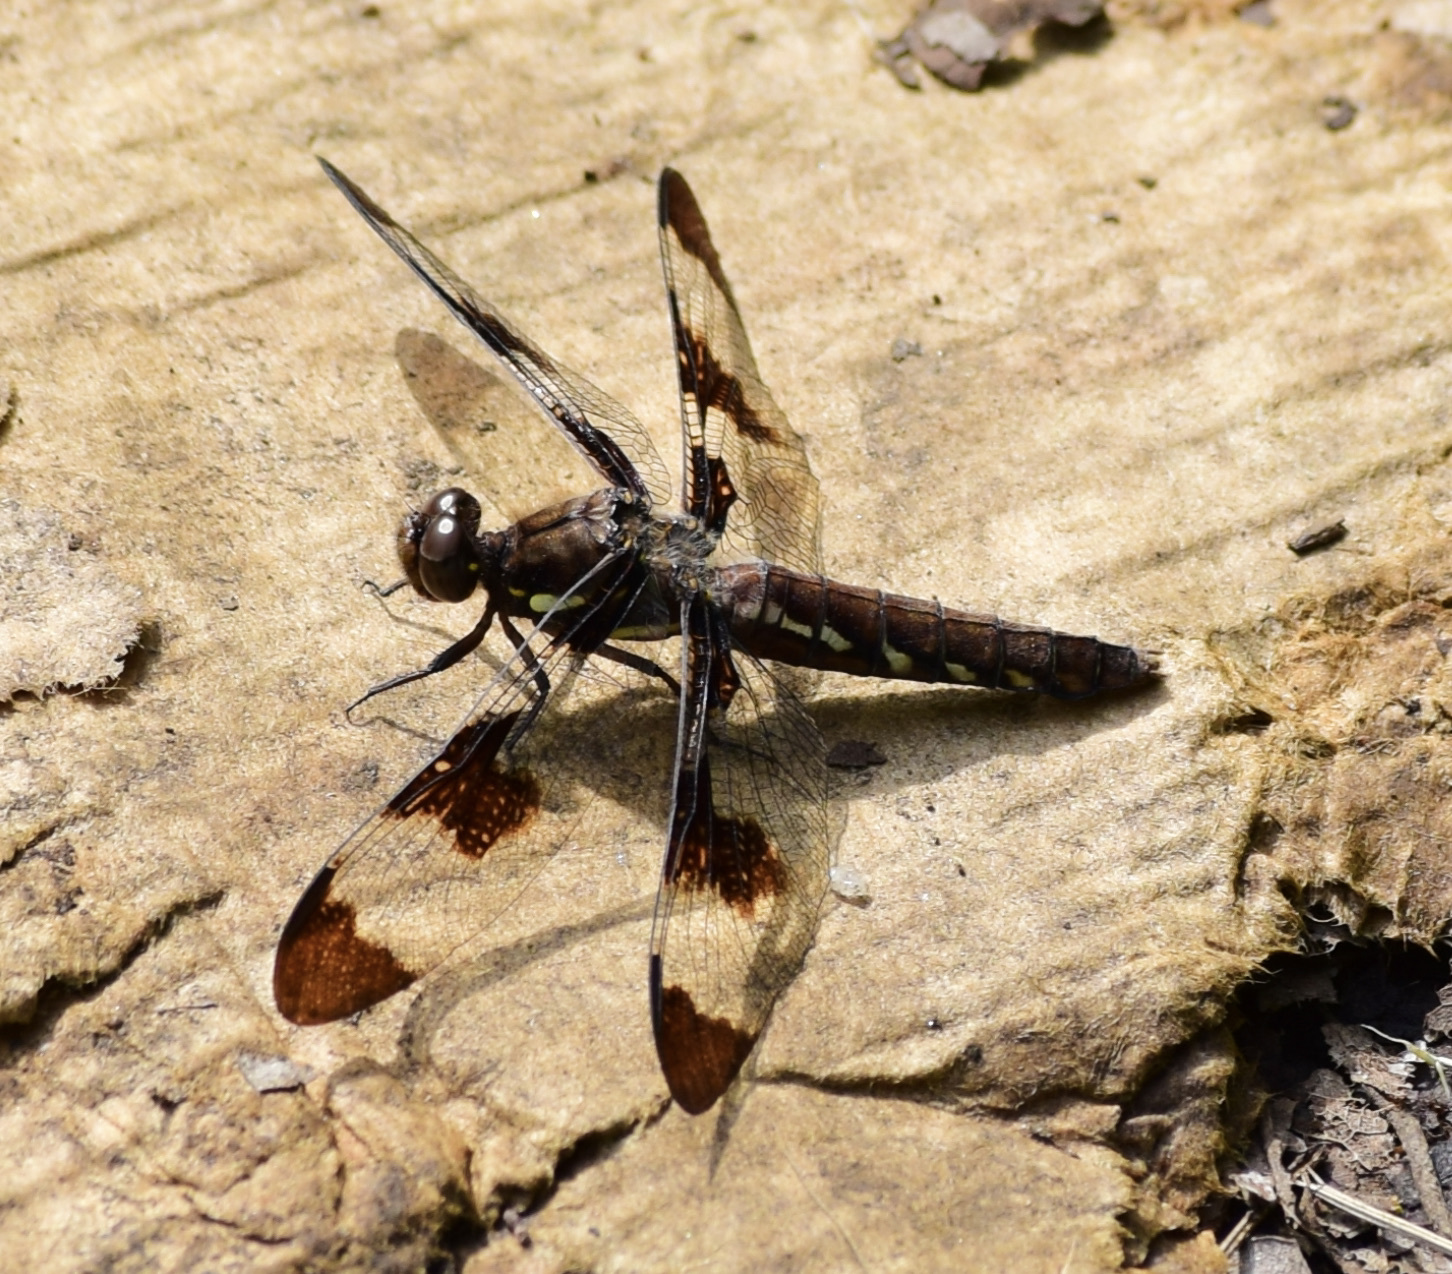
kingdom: Animalia
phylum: Arthropoda
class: Insecta
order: Odonata
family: Libellulidae
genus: Plathemis
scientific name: Plathemis lydia
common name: Common whitetail
